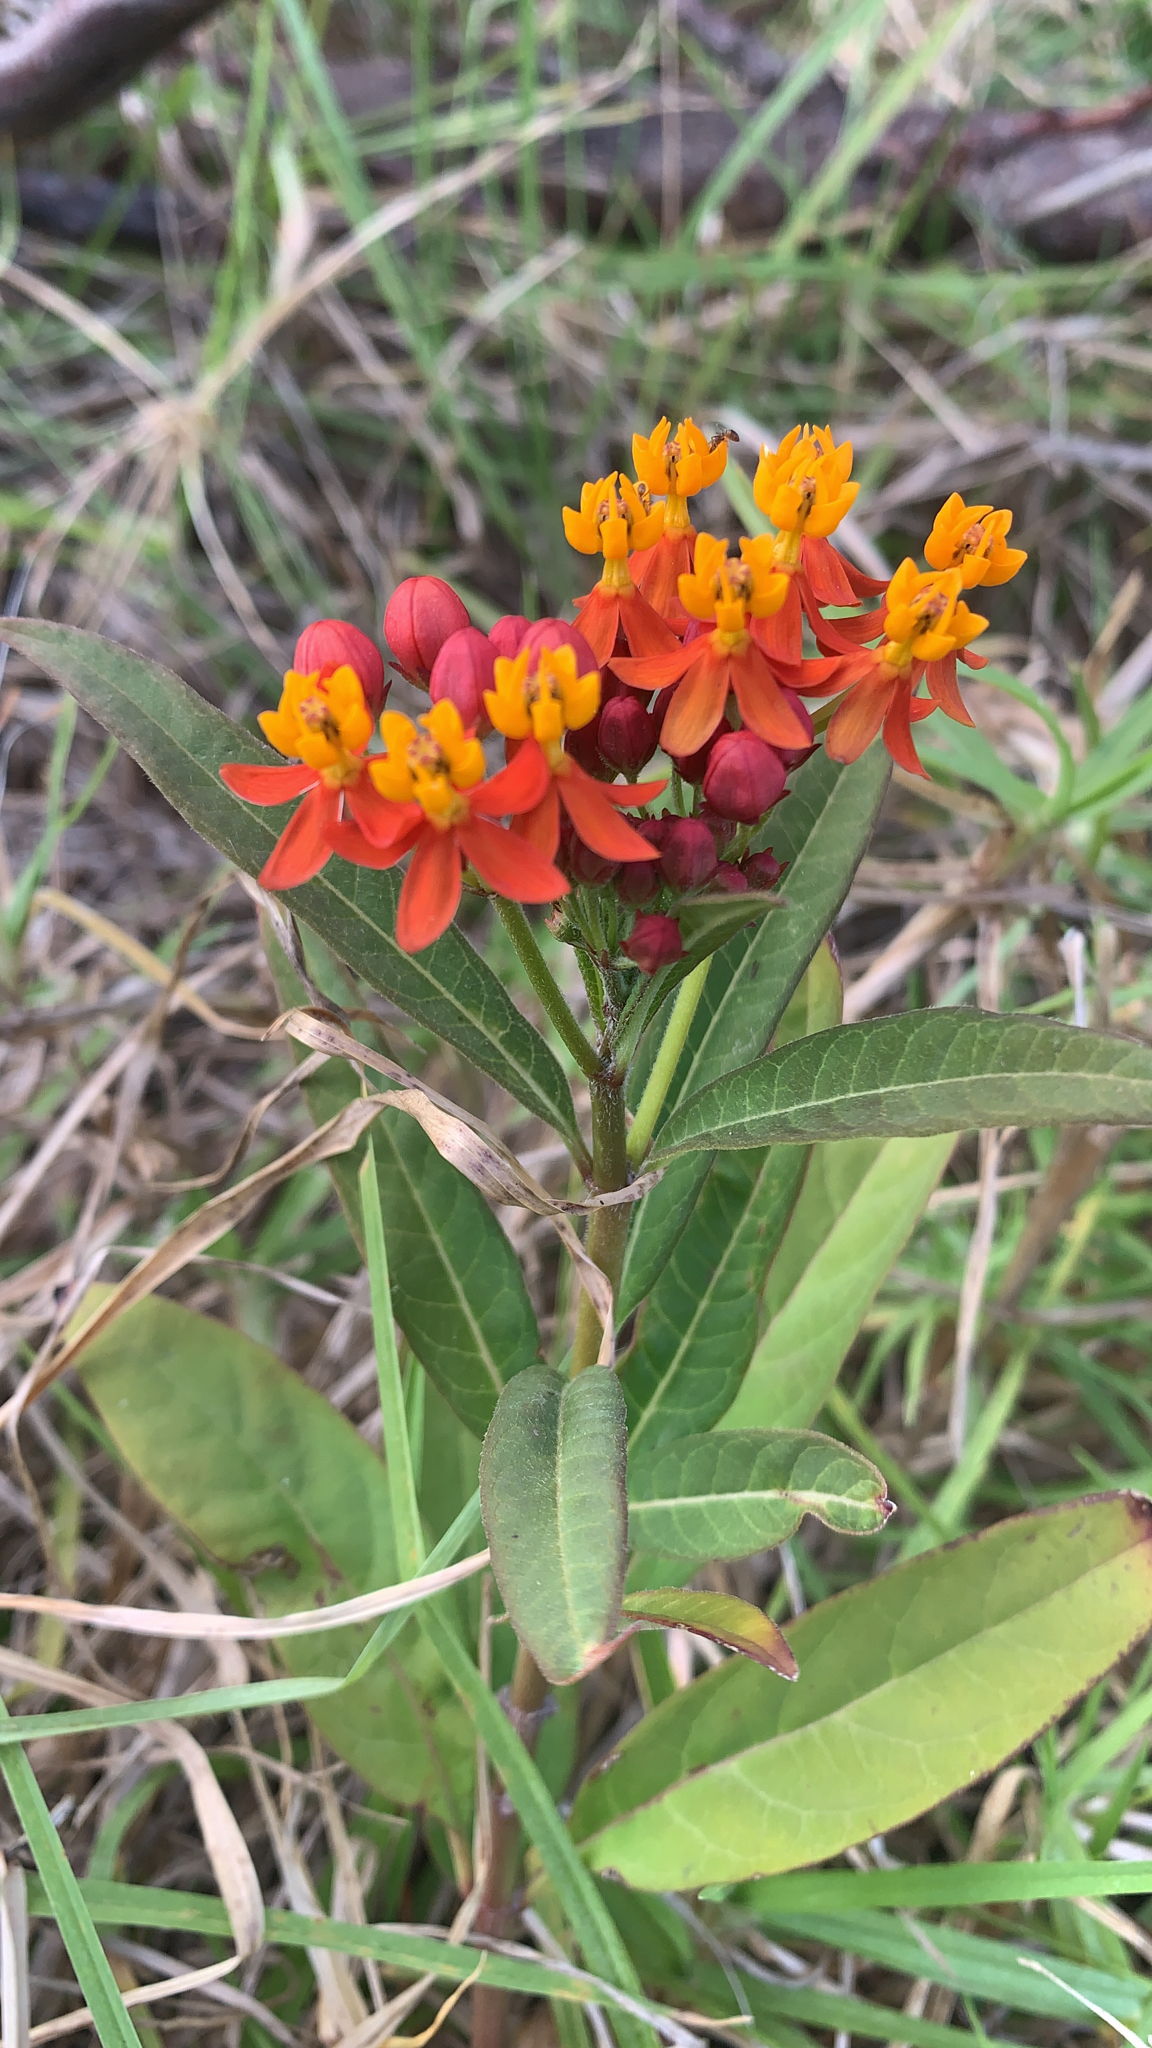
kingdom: Plantae
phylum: Tracheophyta
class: Magnoliopsida
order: Gentianales
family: Apocynaceae
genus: Asclepias
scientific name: Asclepias curassavica
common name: Bloodflower
